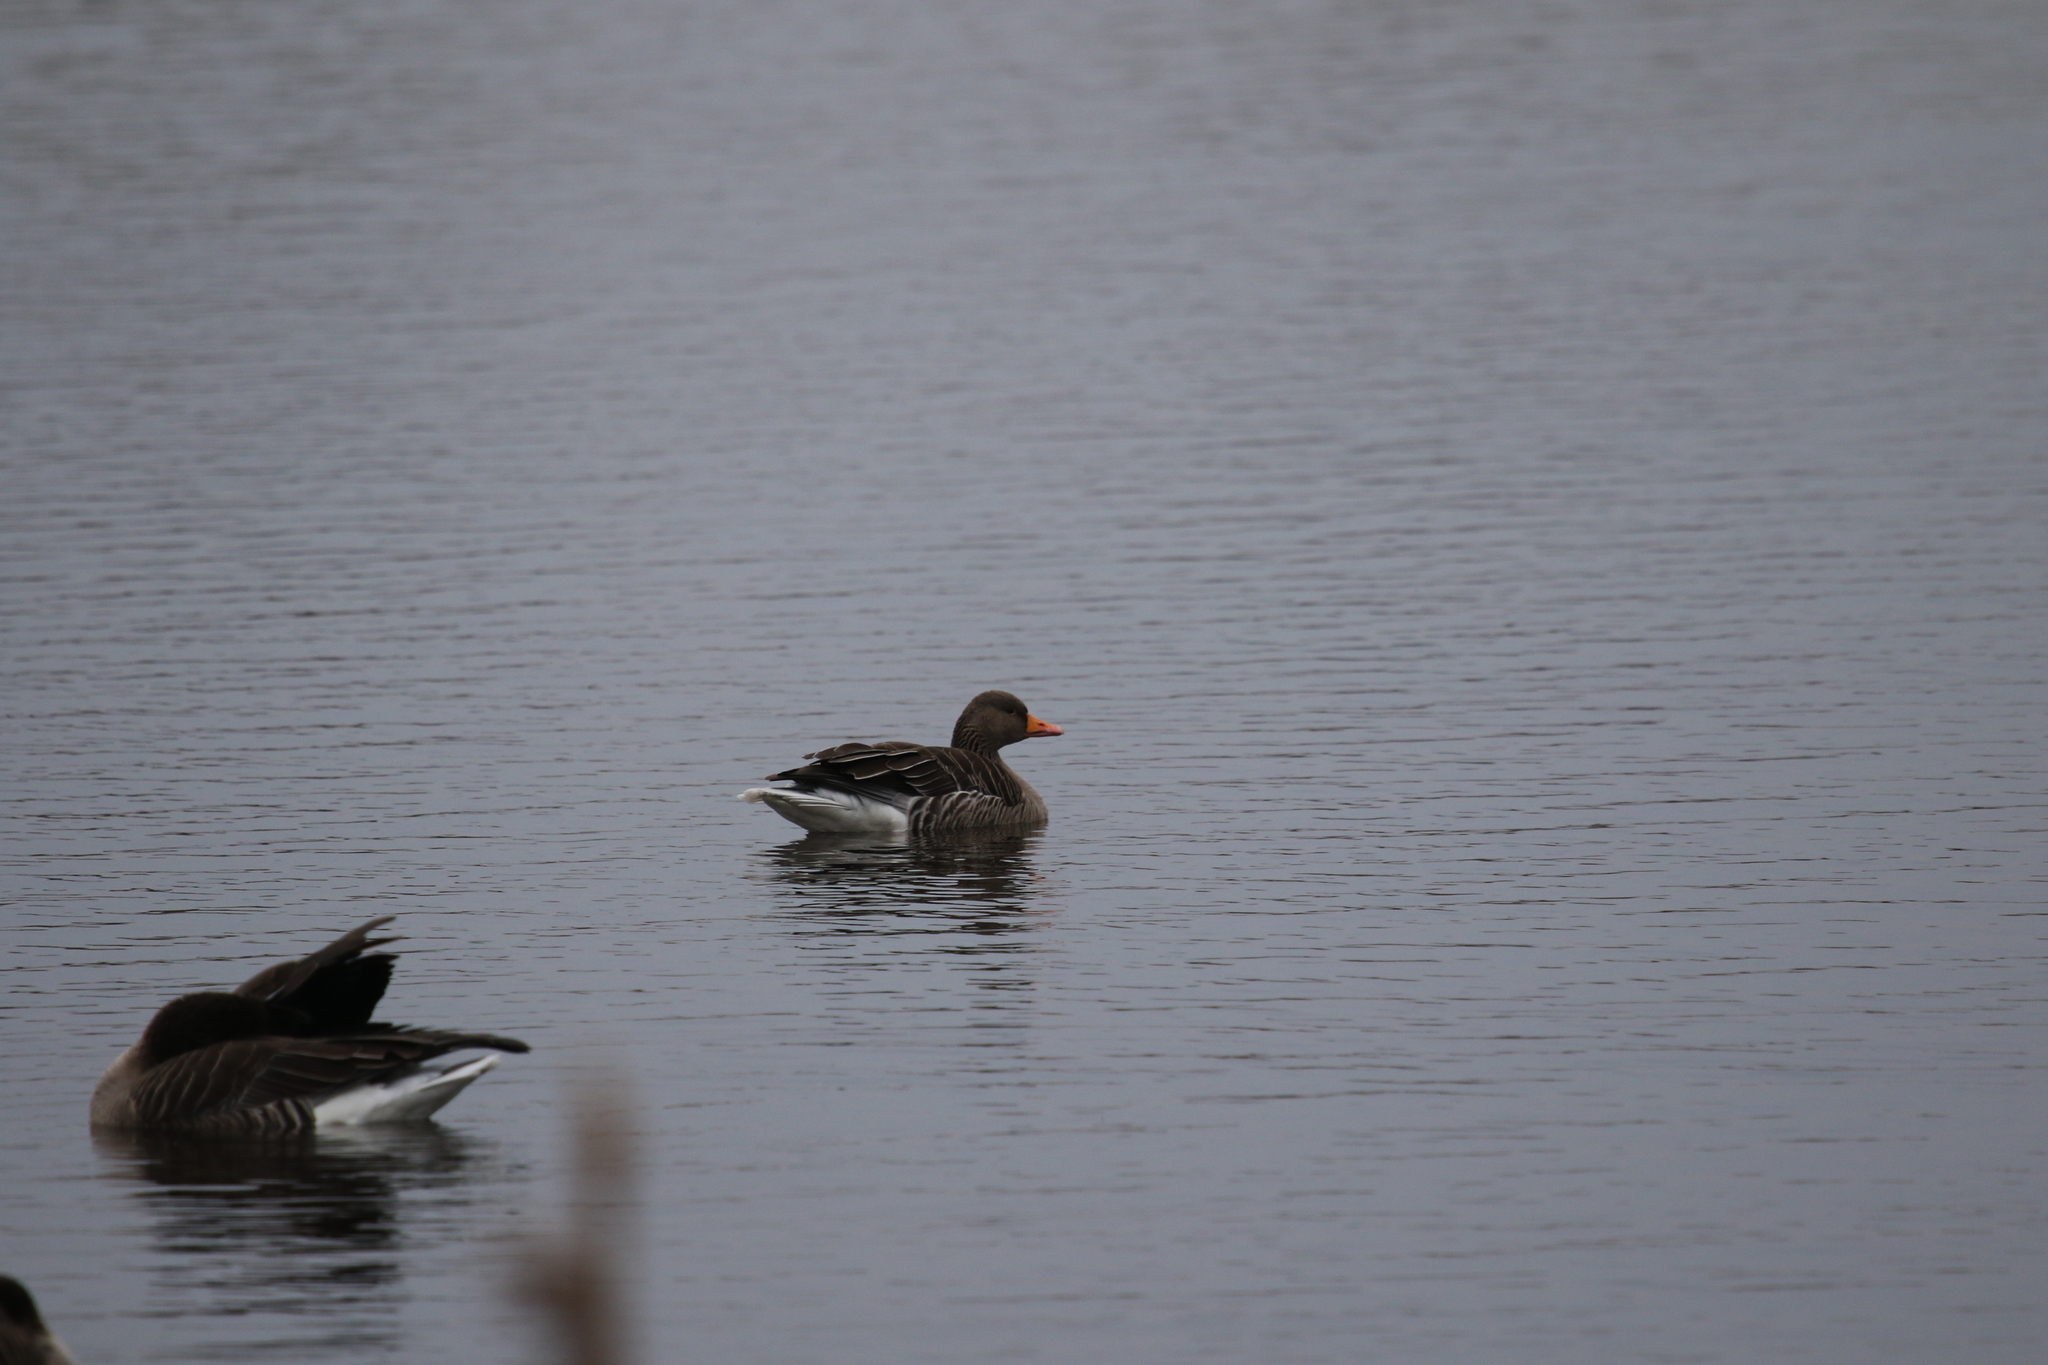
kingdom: Animalia
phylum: Chordata
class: Aves
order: Anseriformes
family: Anatidae
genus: Anser
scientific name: Anser anser
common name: Greylag goose
